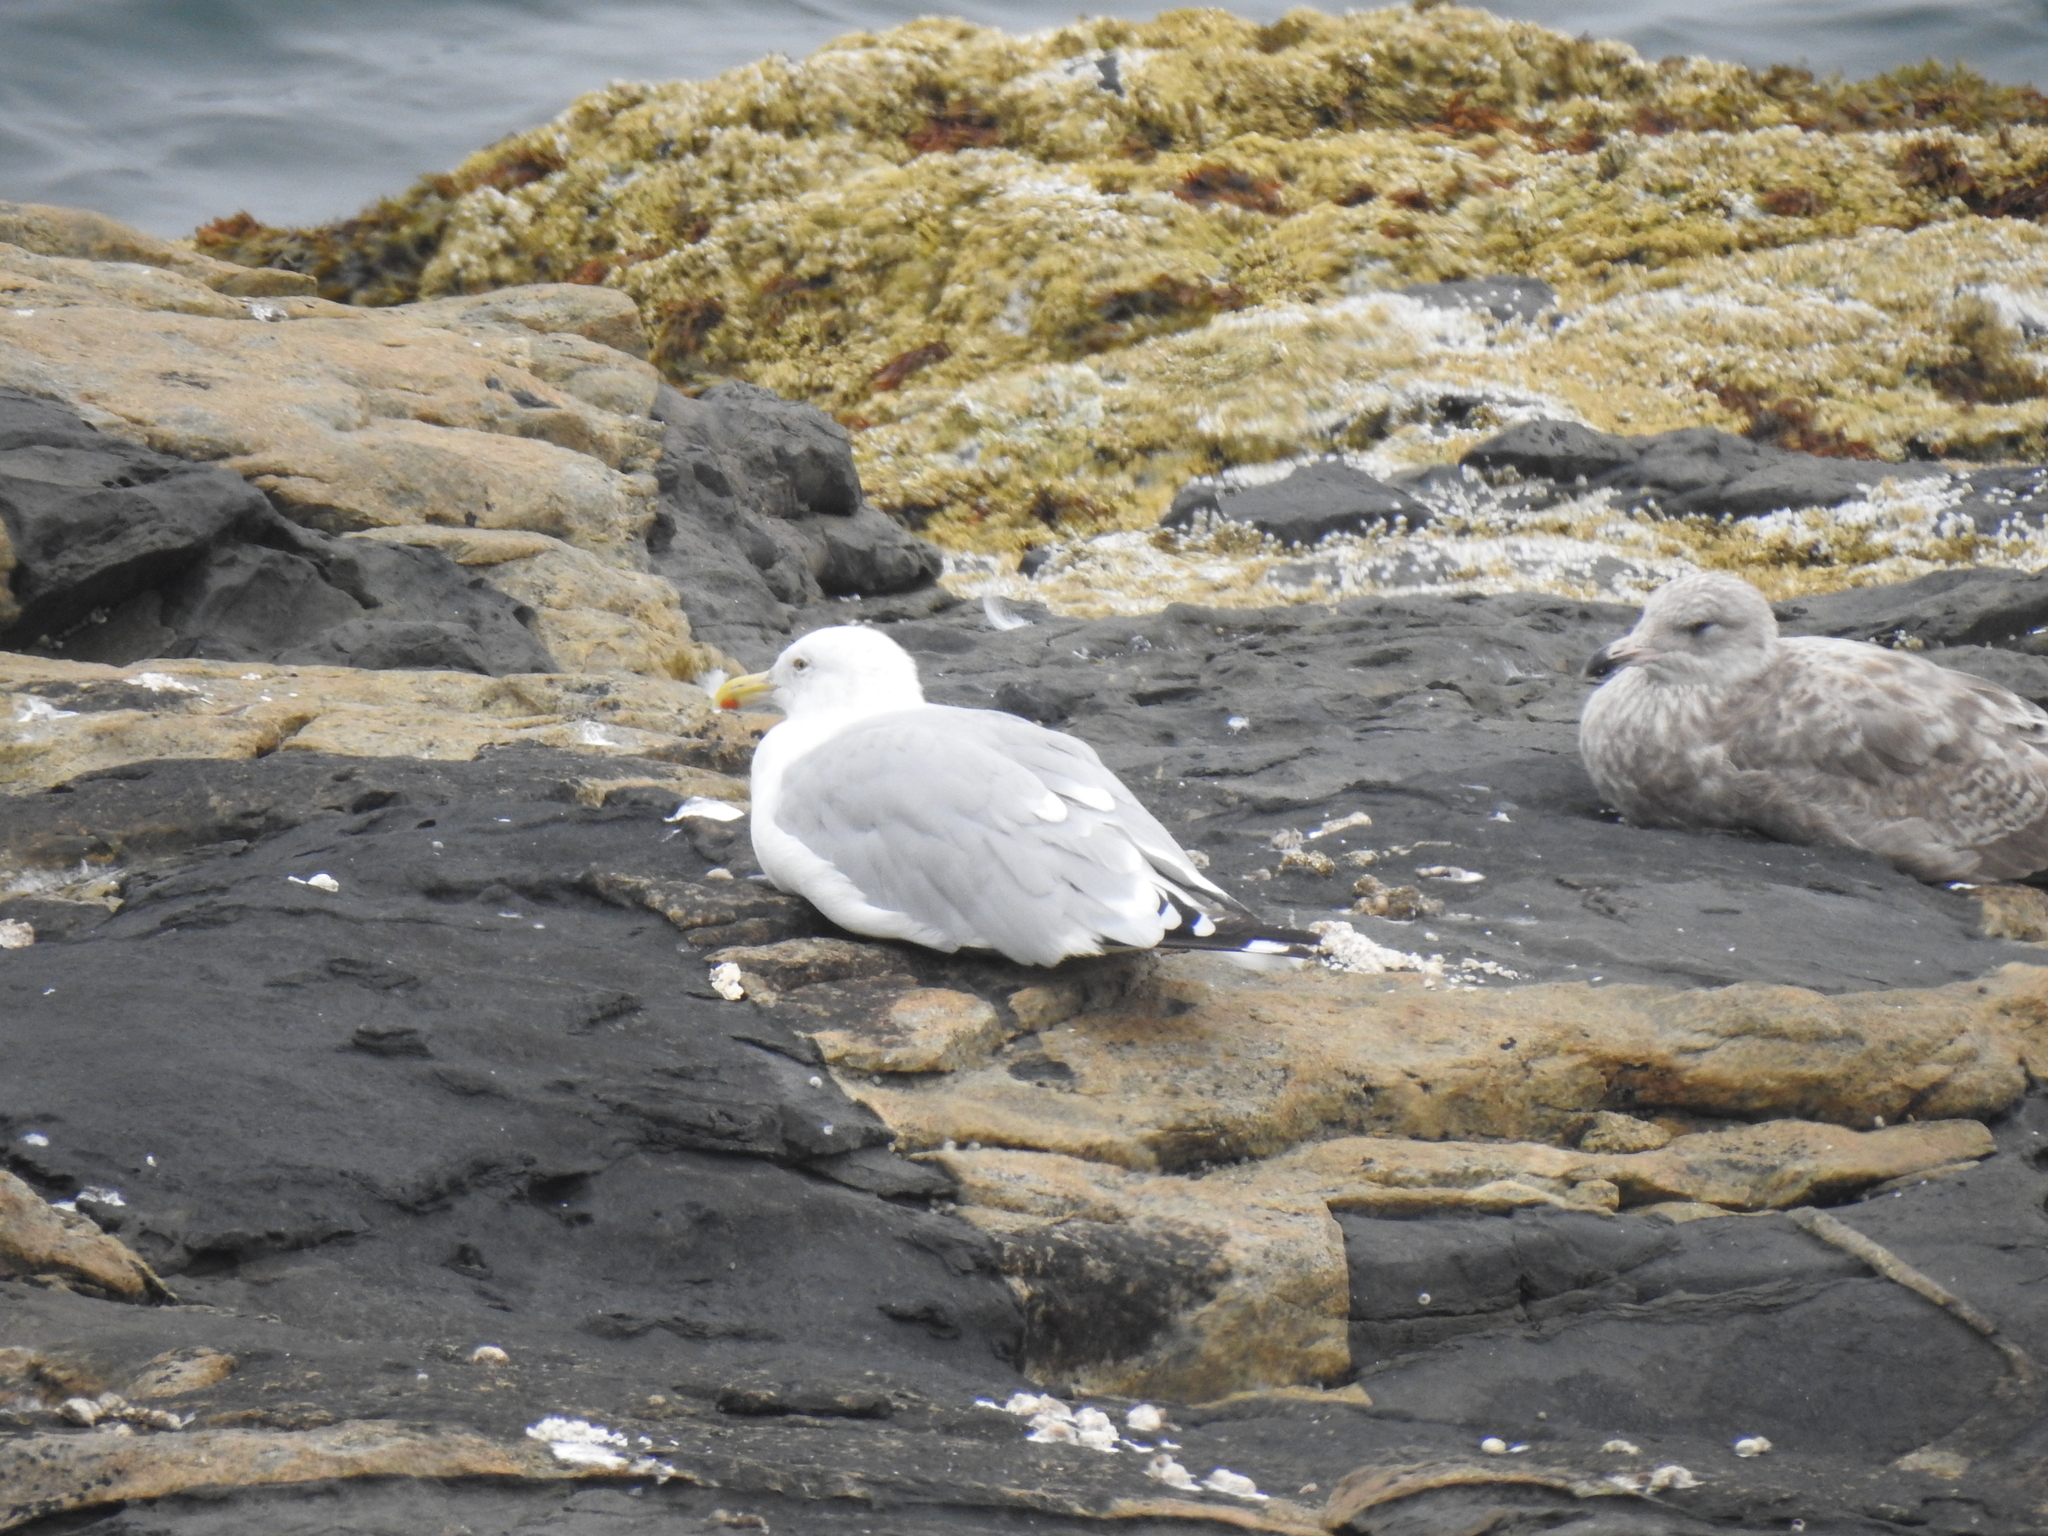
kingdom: Animalia
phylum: Chordata
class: Aves
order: Charadriiformes
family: Laridae
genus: Larus
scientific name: Larus argentatus
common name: Herring gull
